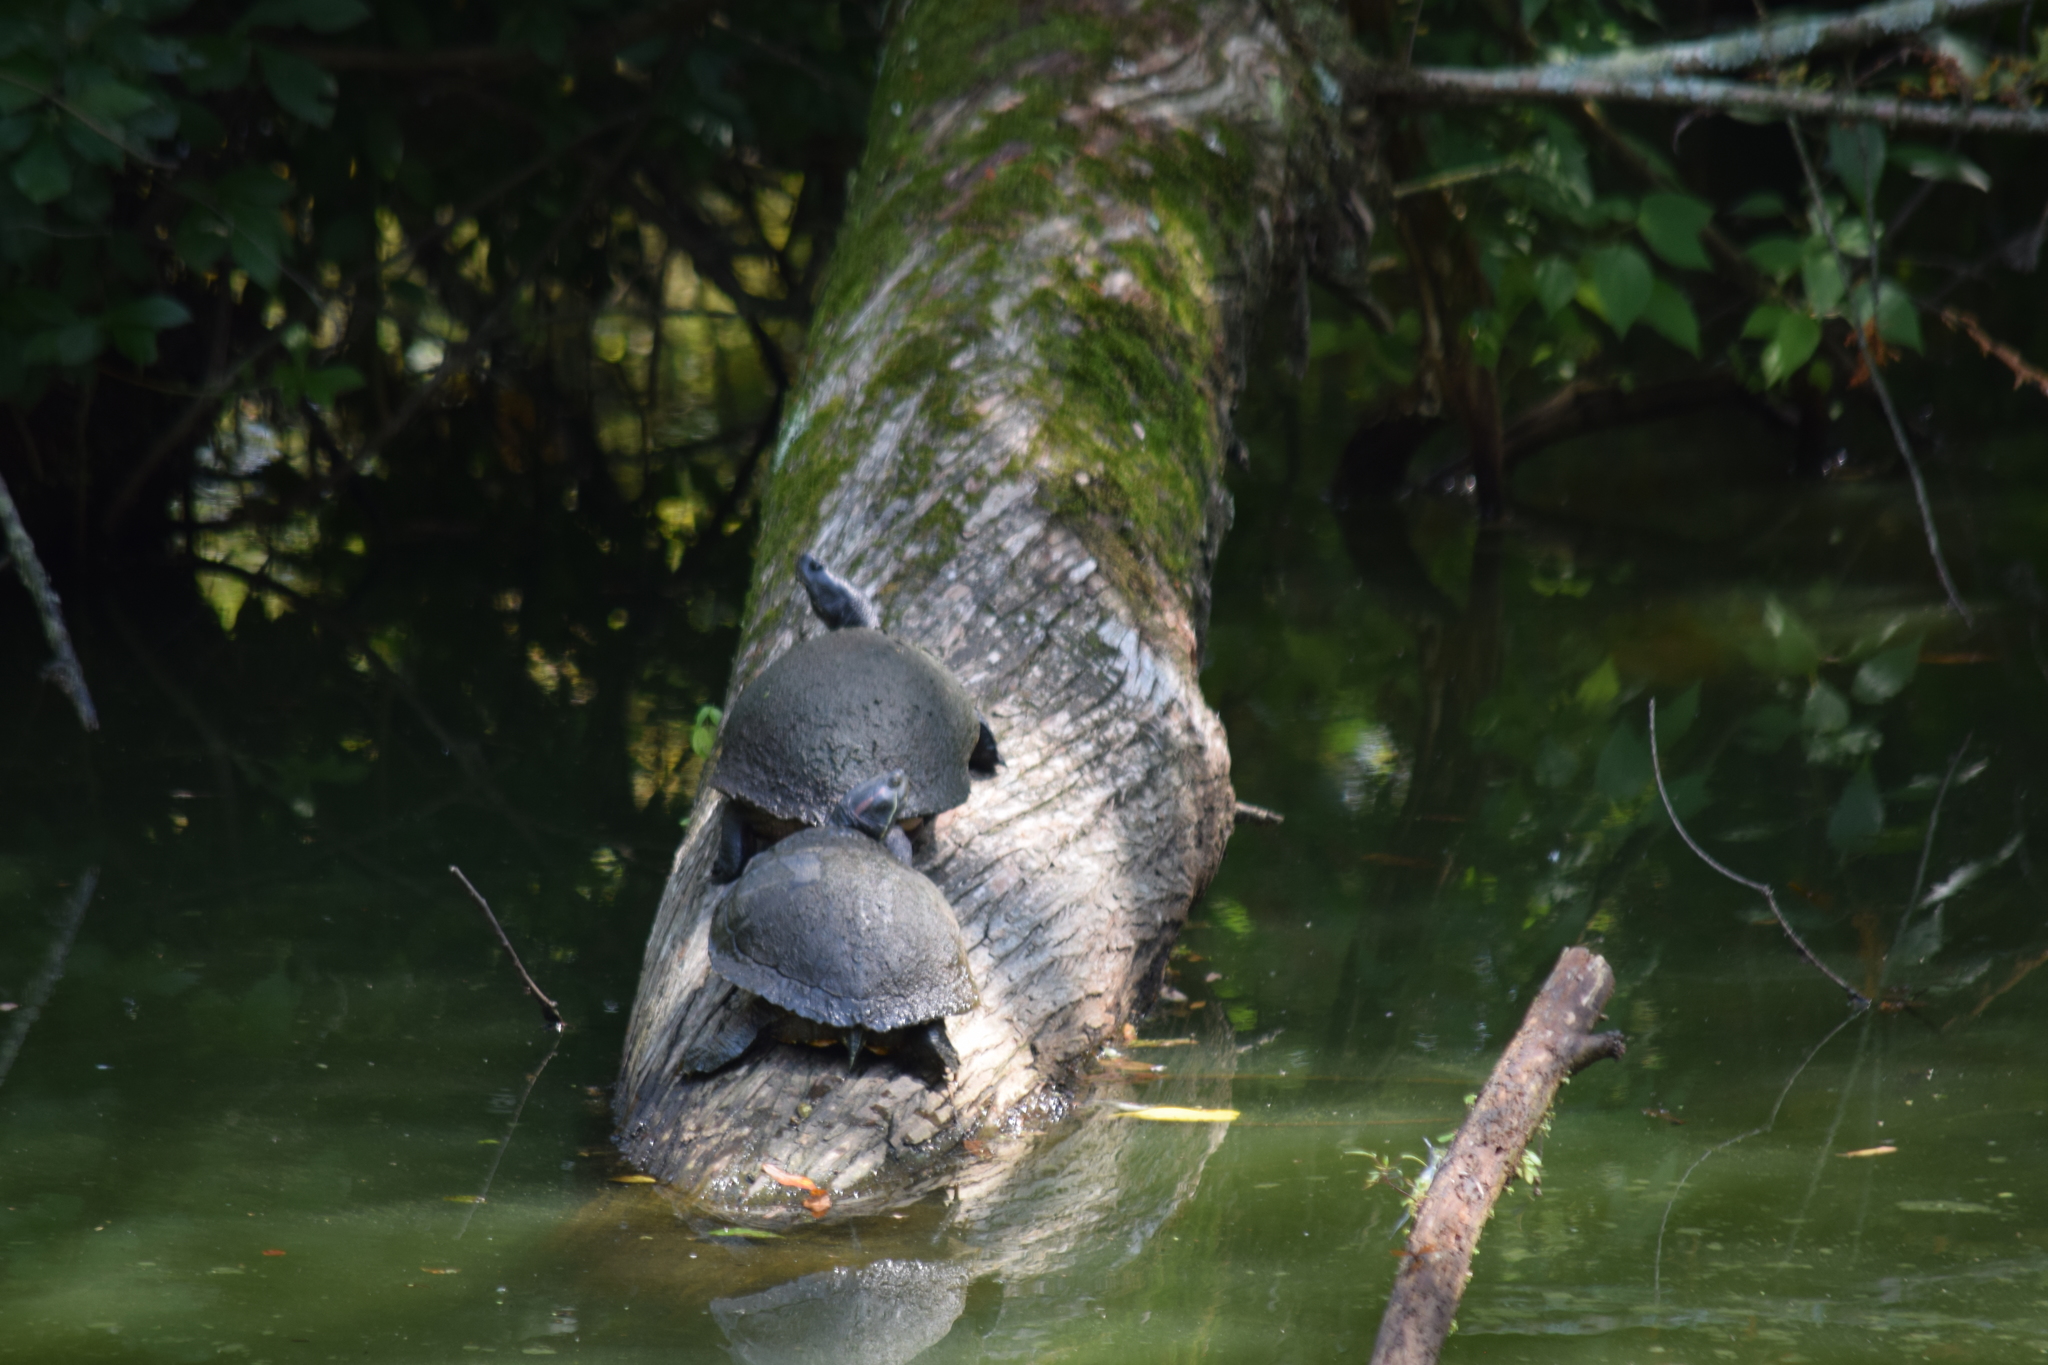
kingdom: Animalia
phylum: Chordata
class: Testudines
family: Emydidae
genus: Pseudemys
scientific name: Pseudemys rubriventris
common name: American red-bellied turtle
